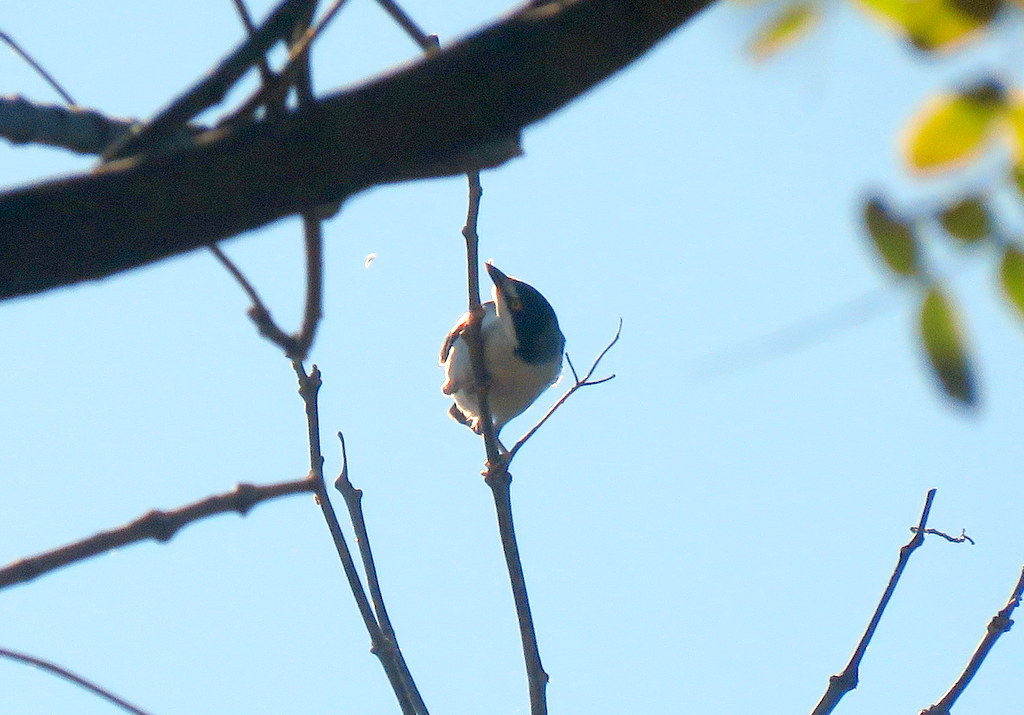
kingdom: Animalia
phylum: Chordata
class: Aves
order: Passeriformes
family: Thraupidae
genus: Nemosia
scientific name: Nemosia pileata
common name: Hooded tanager
